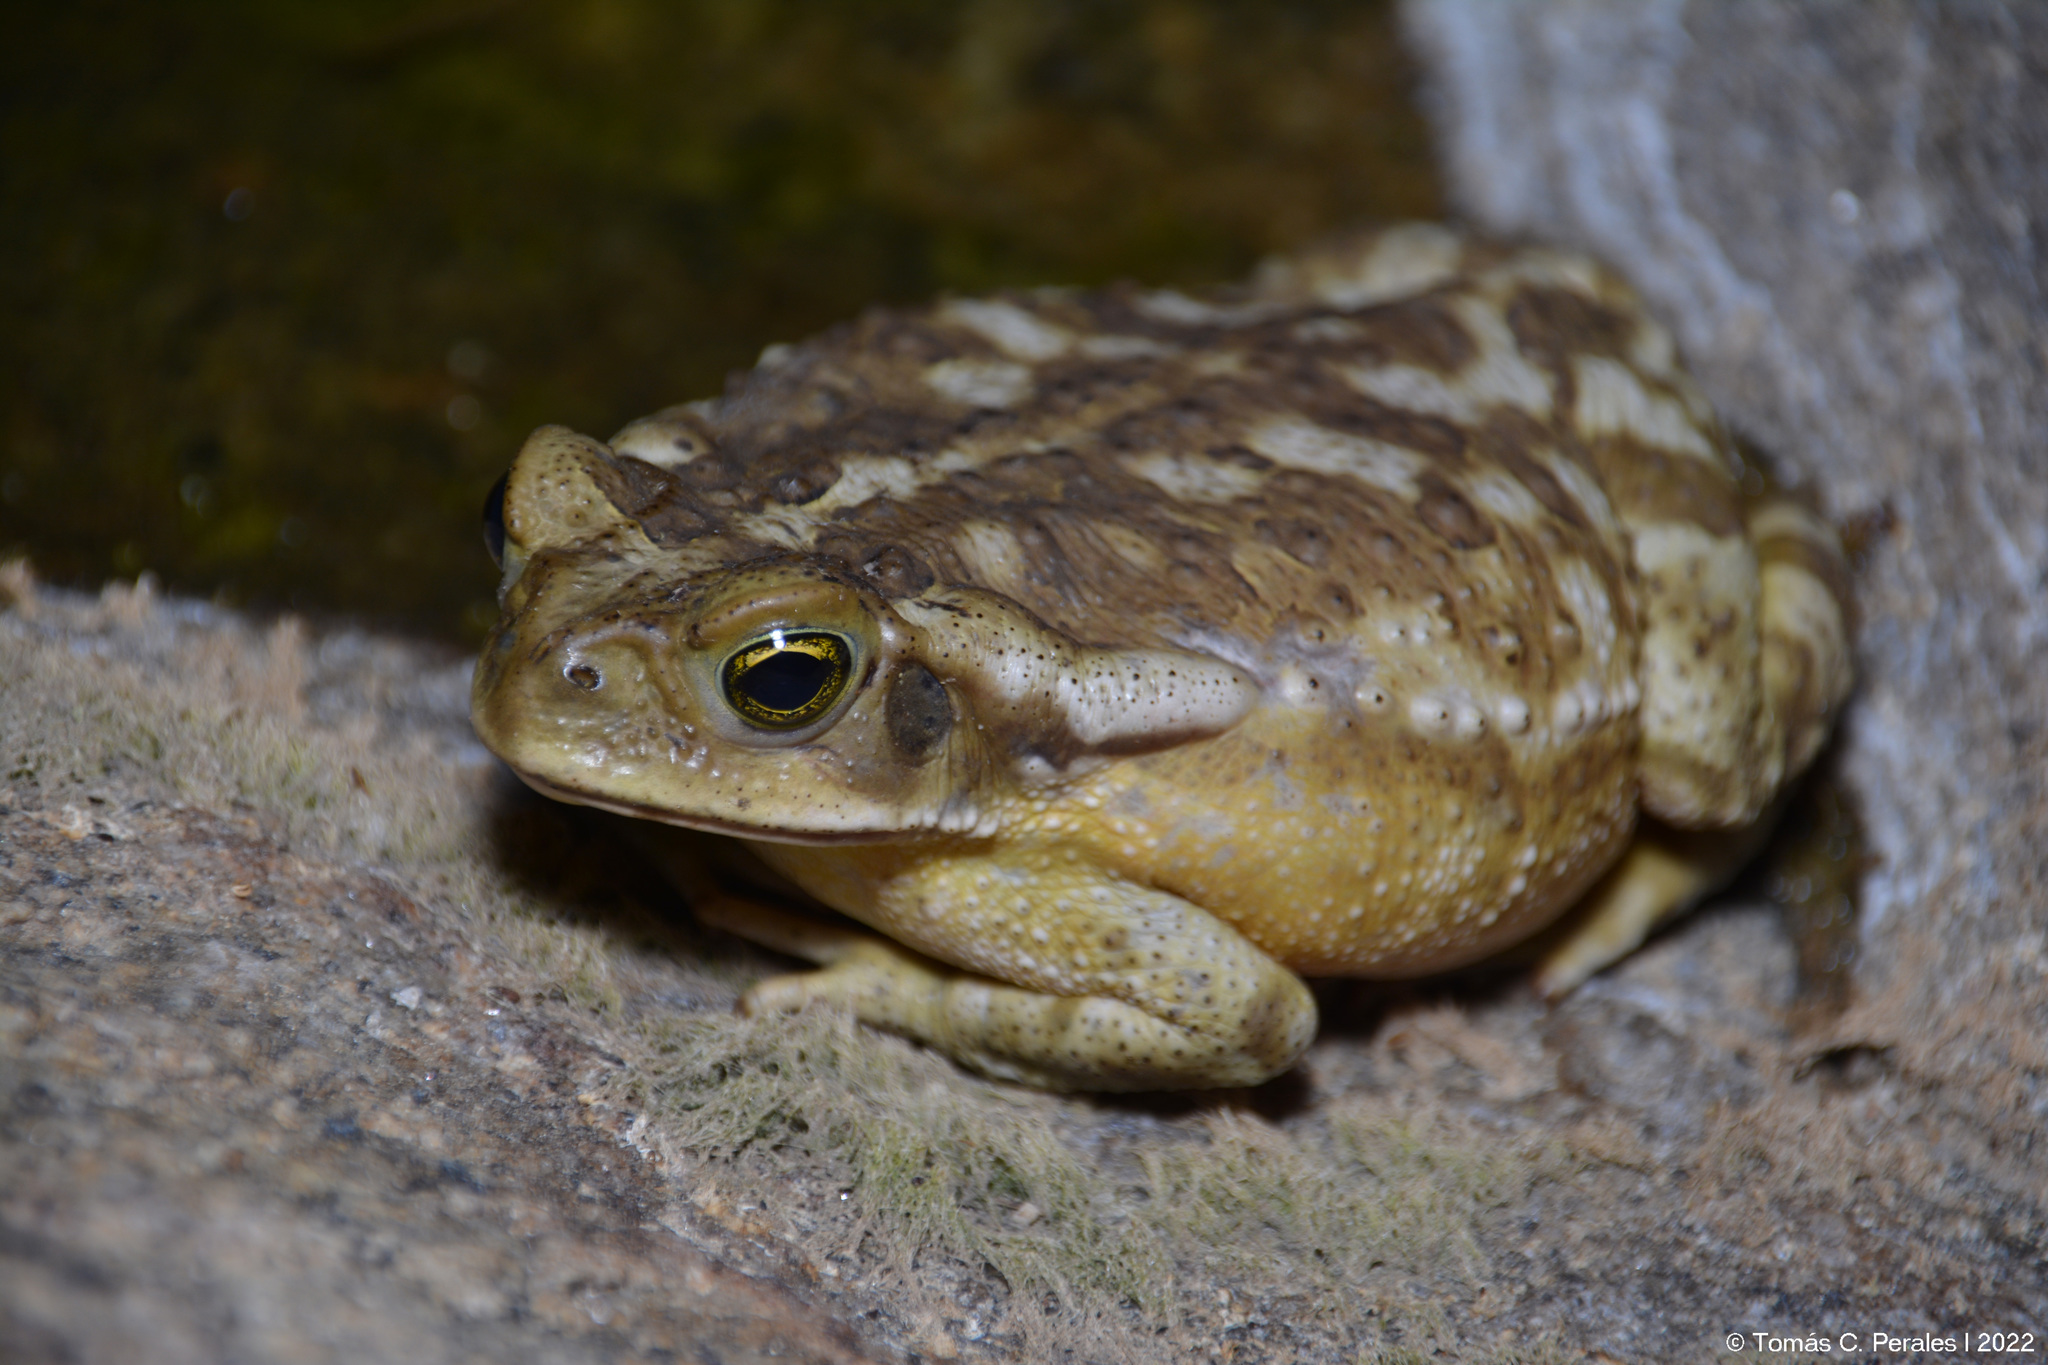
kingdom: Animalia
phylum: Chordata
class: Amphibia
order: Anura
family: Bufonidae
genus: Rhinella
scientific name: Rhinella arenarum
